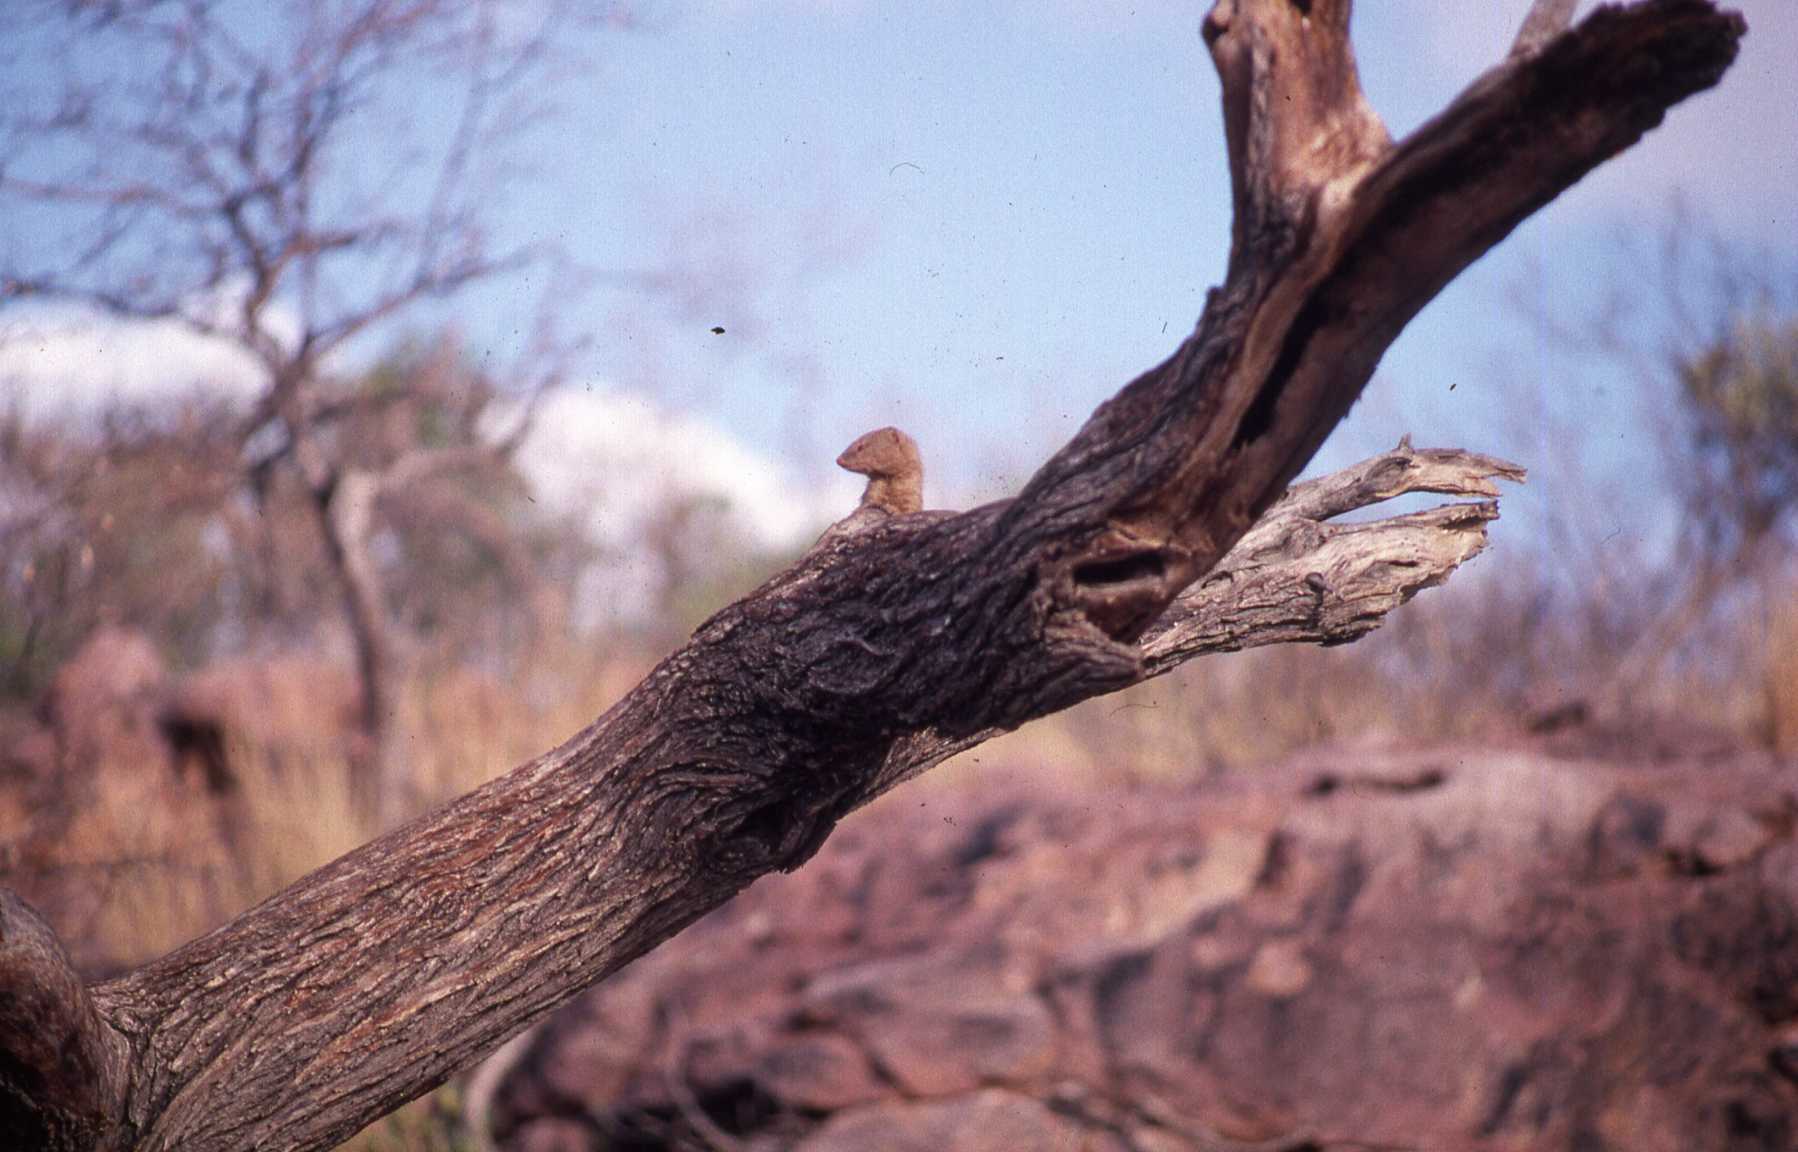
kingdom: Animalia
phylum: Chordata
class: Mammalia
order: Carnivora
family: Herpestidae
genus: Galerella
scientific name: Galerella sanguinea
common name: Slender mongoose
